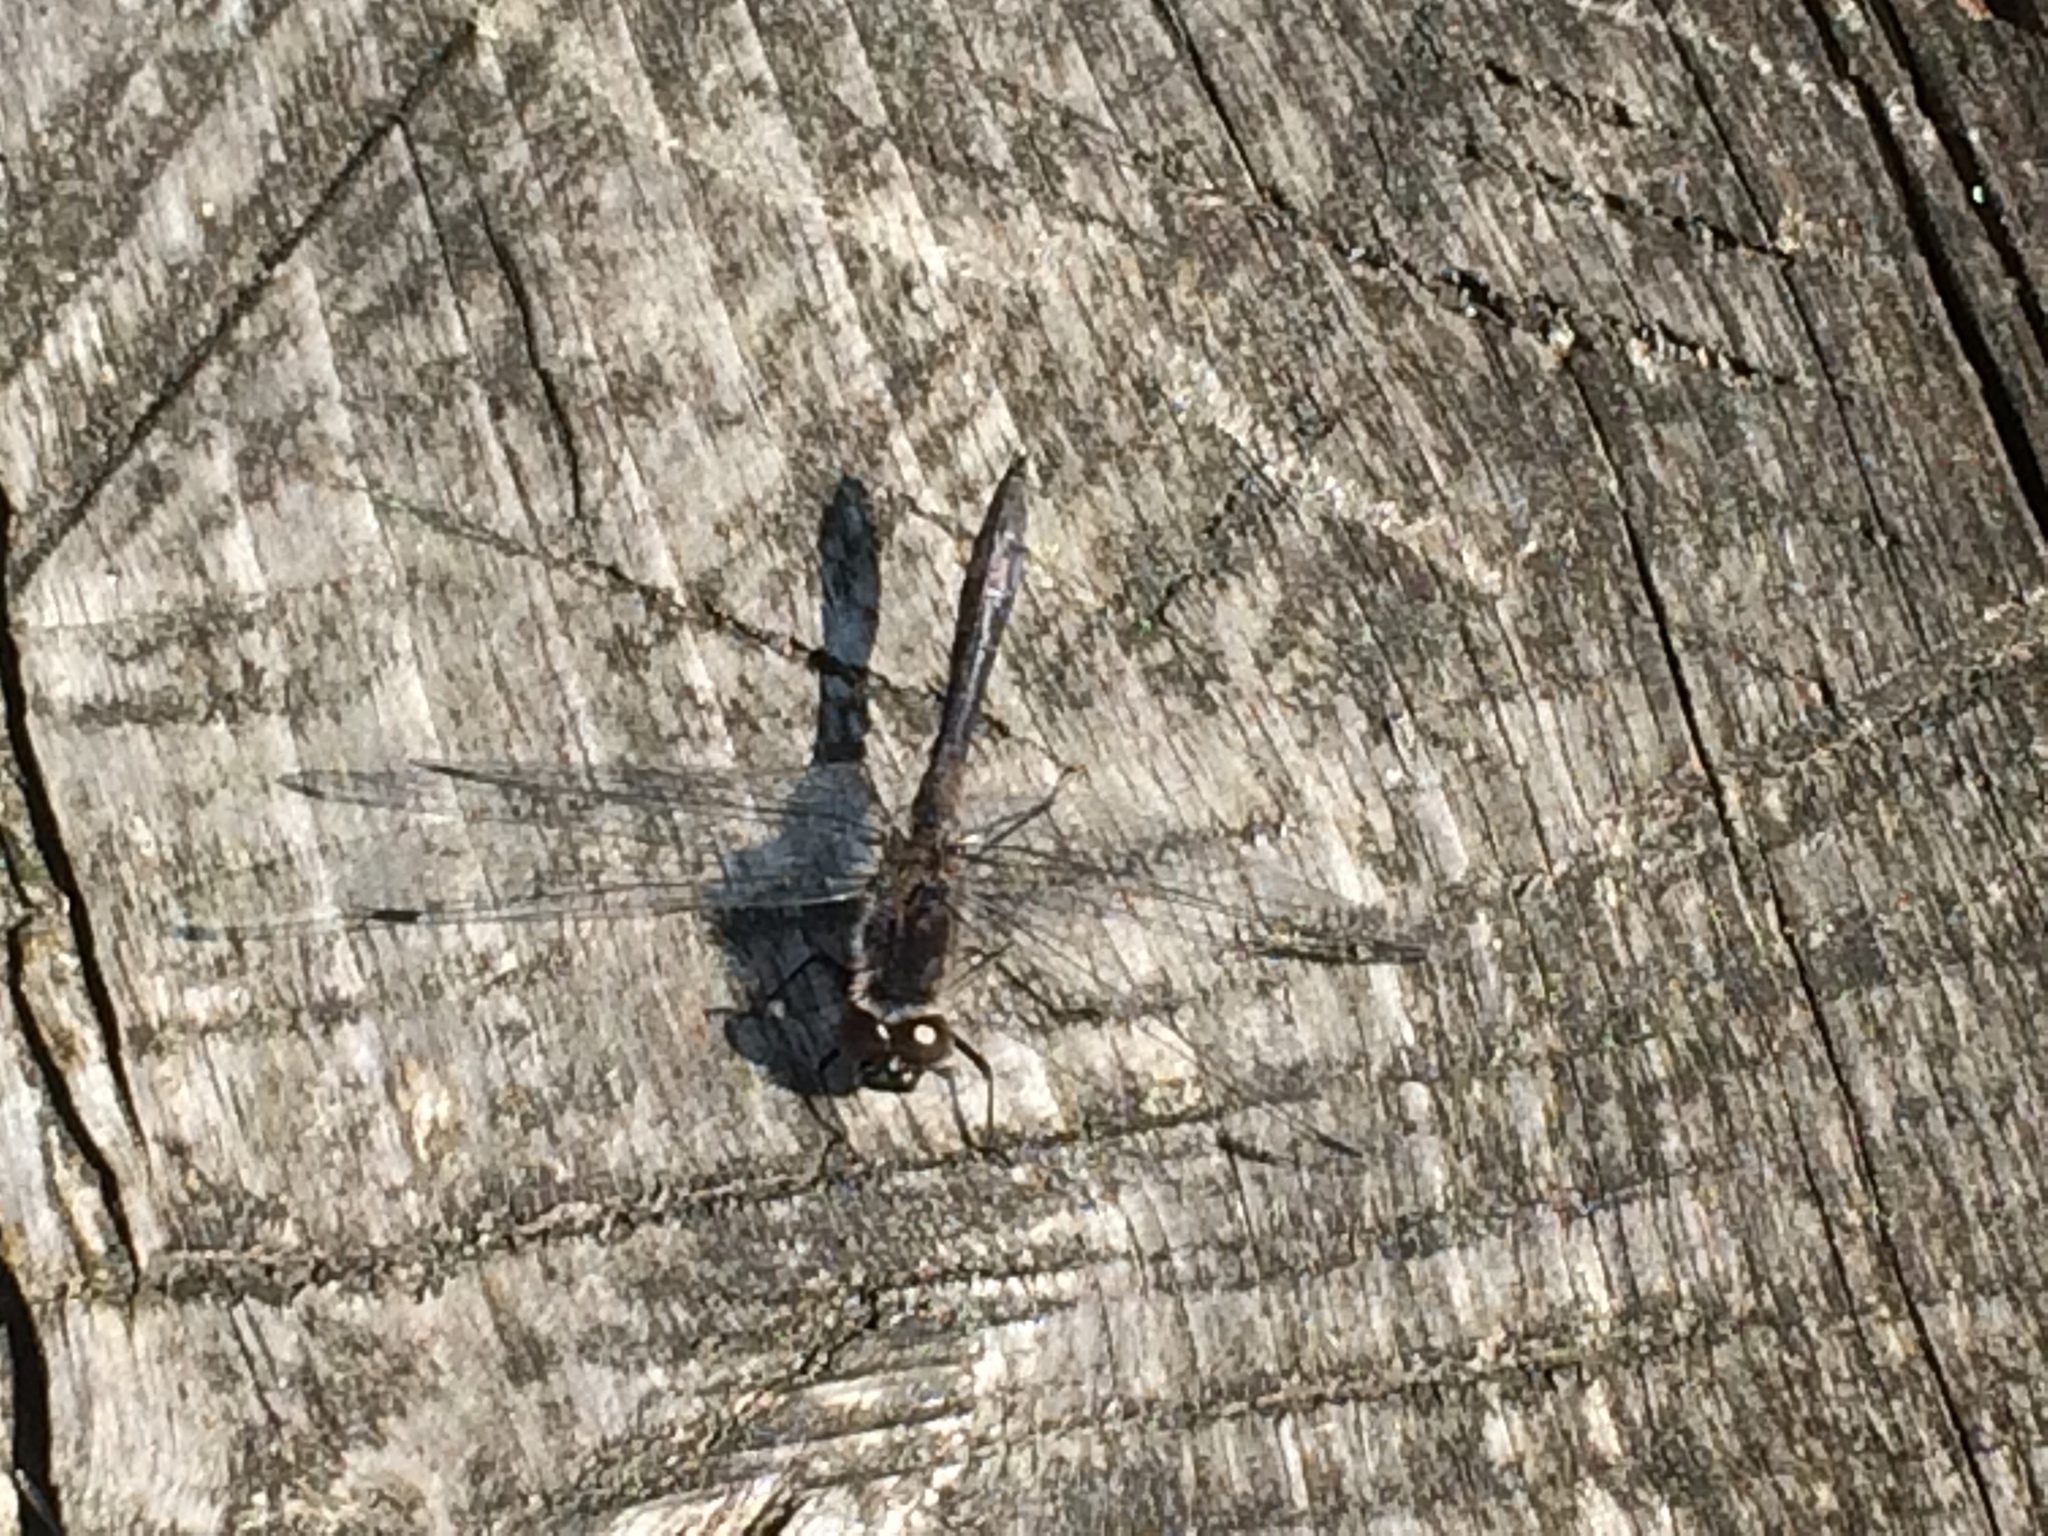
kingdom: Animalia
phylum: Arthropoda
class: Insecta
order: Odonata
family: Libellulidae
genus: Sympetrum
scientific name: Sympetrum danae
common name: Black darter
